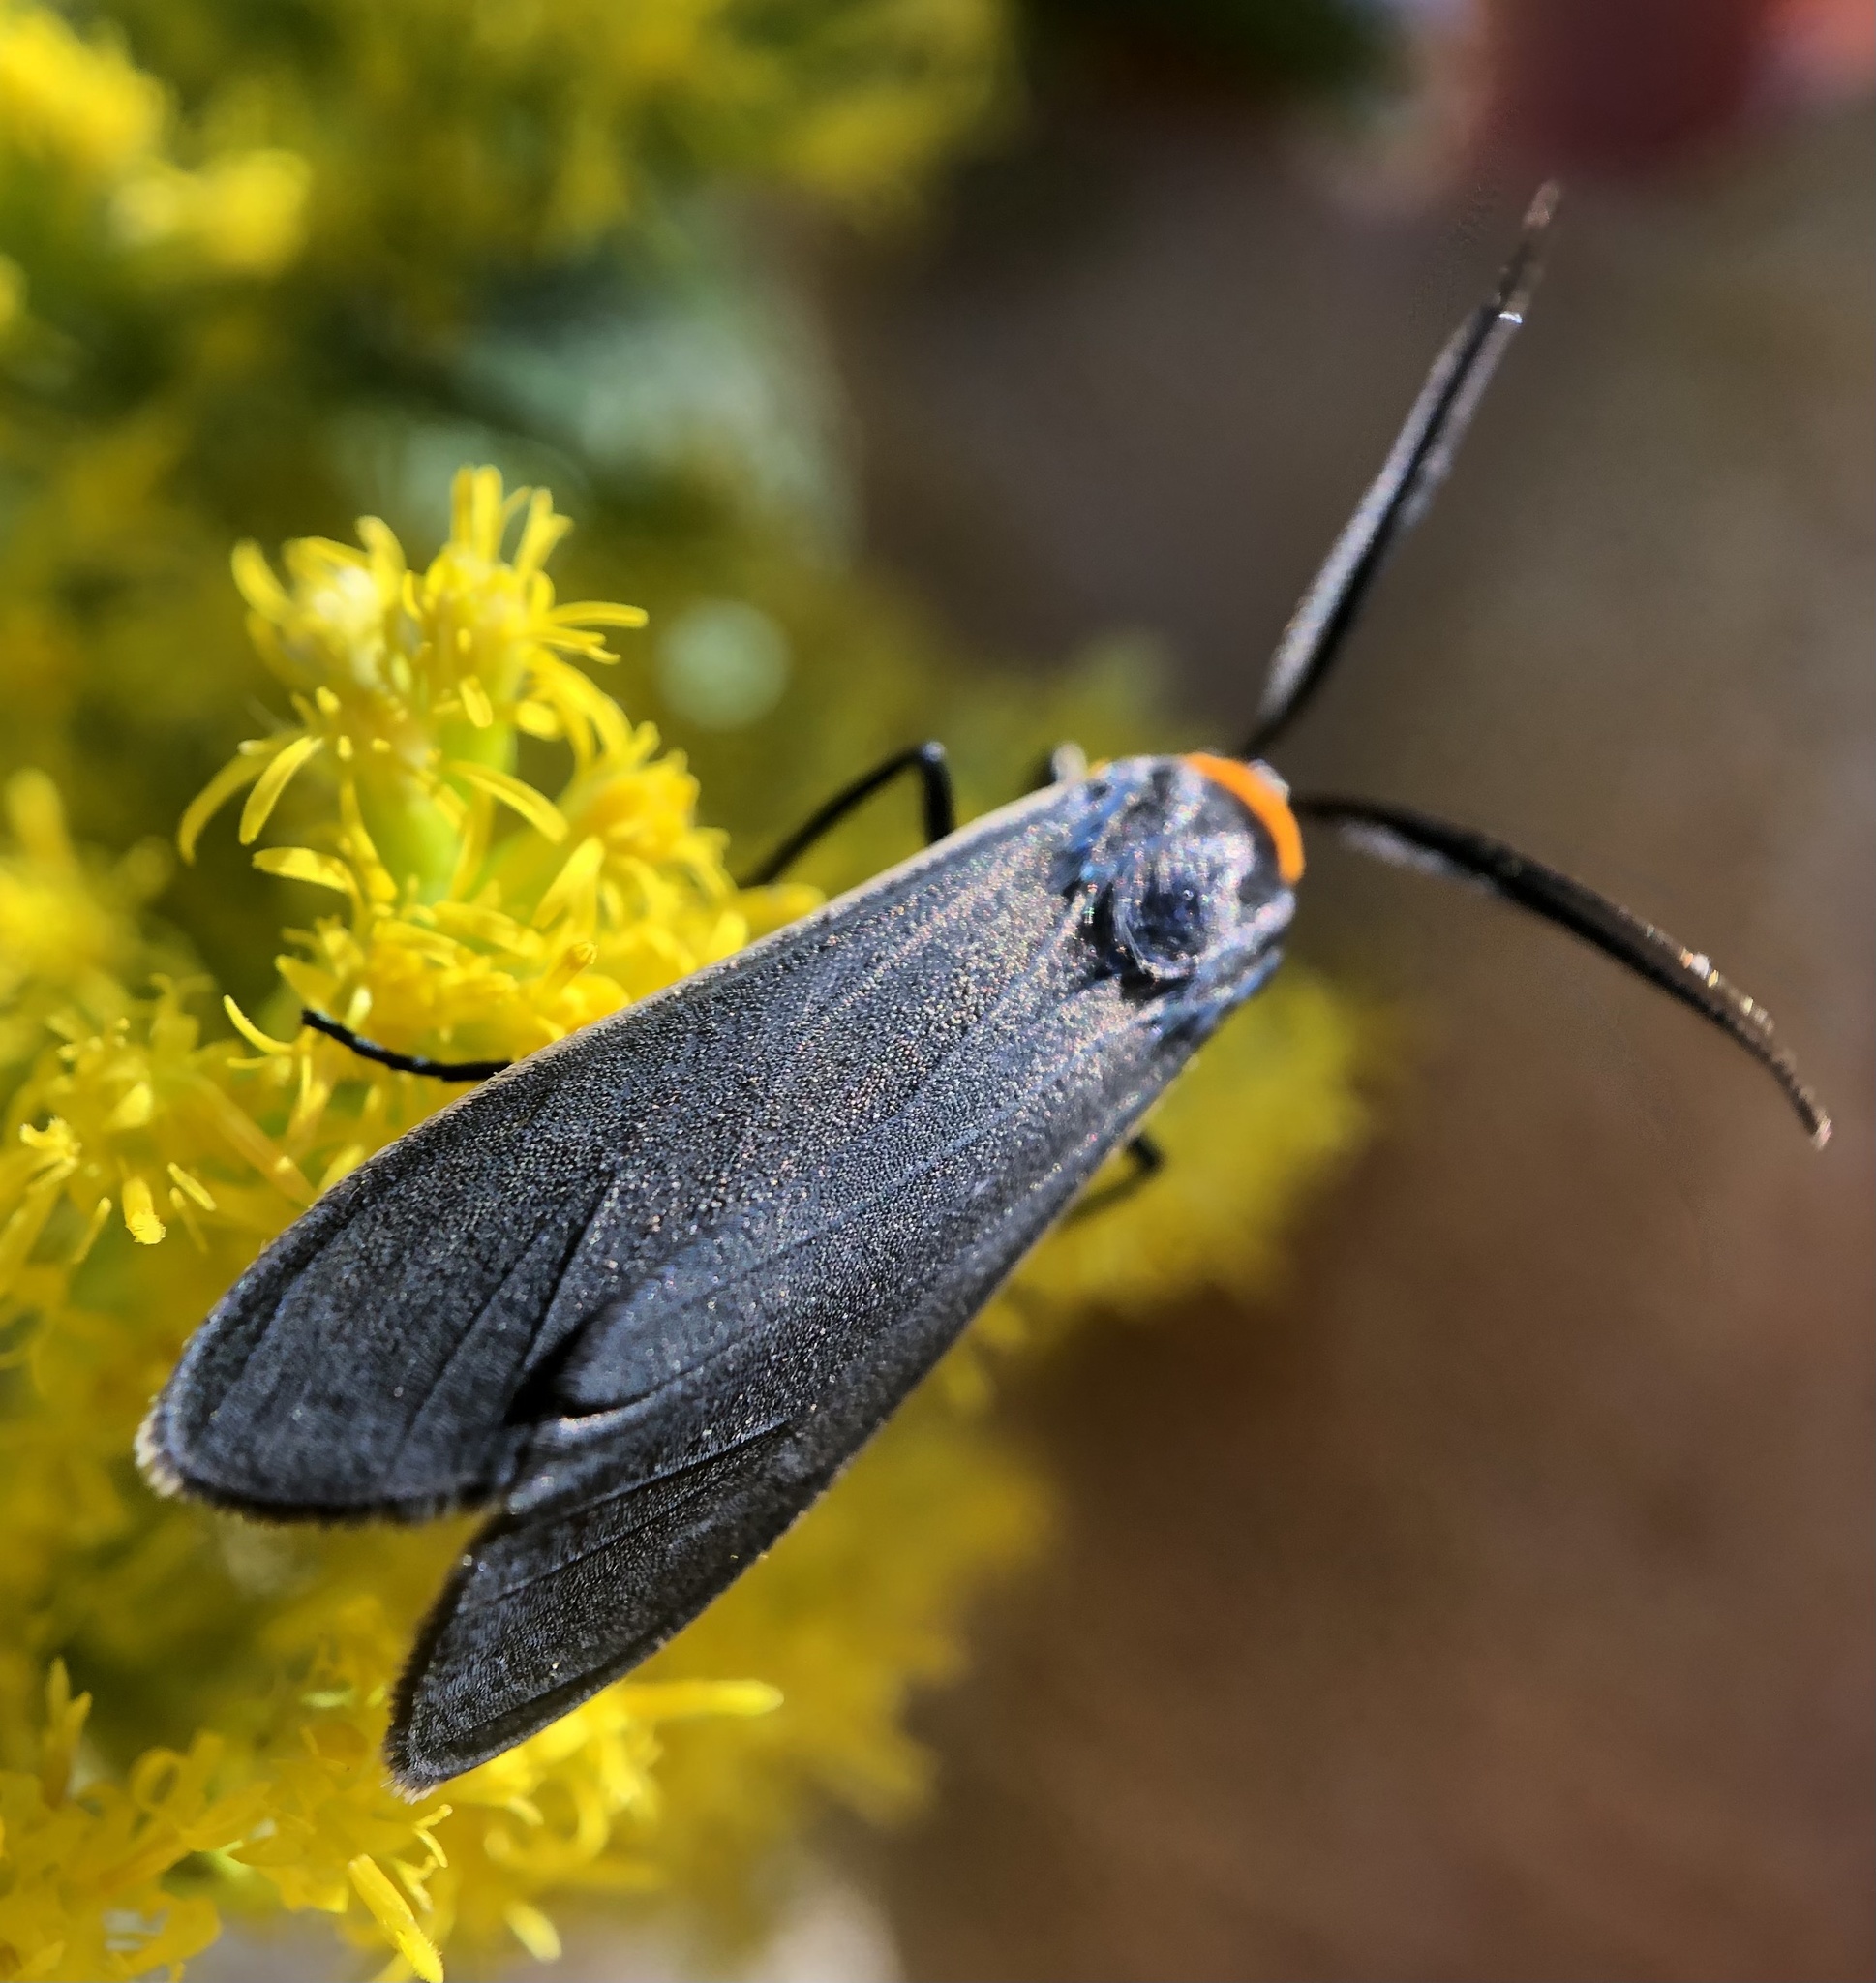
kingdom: Animalia
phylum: Arthropoda
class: Insecta
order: Lepidoptera
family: Erebidae
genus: Cisseps
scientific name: Cisseps fulvicollis
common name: Yellow-collared scape moth
